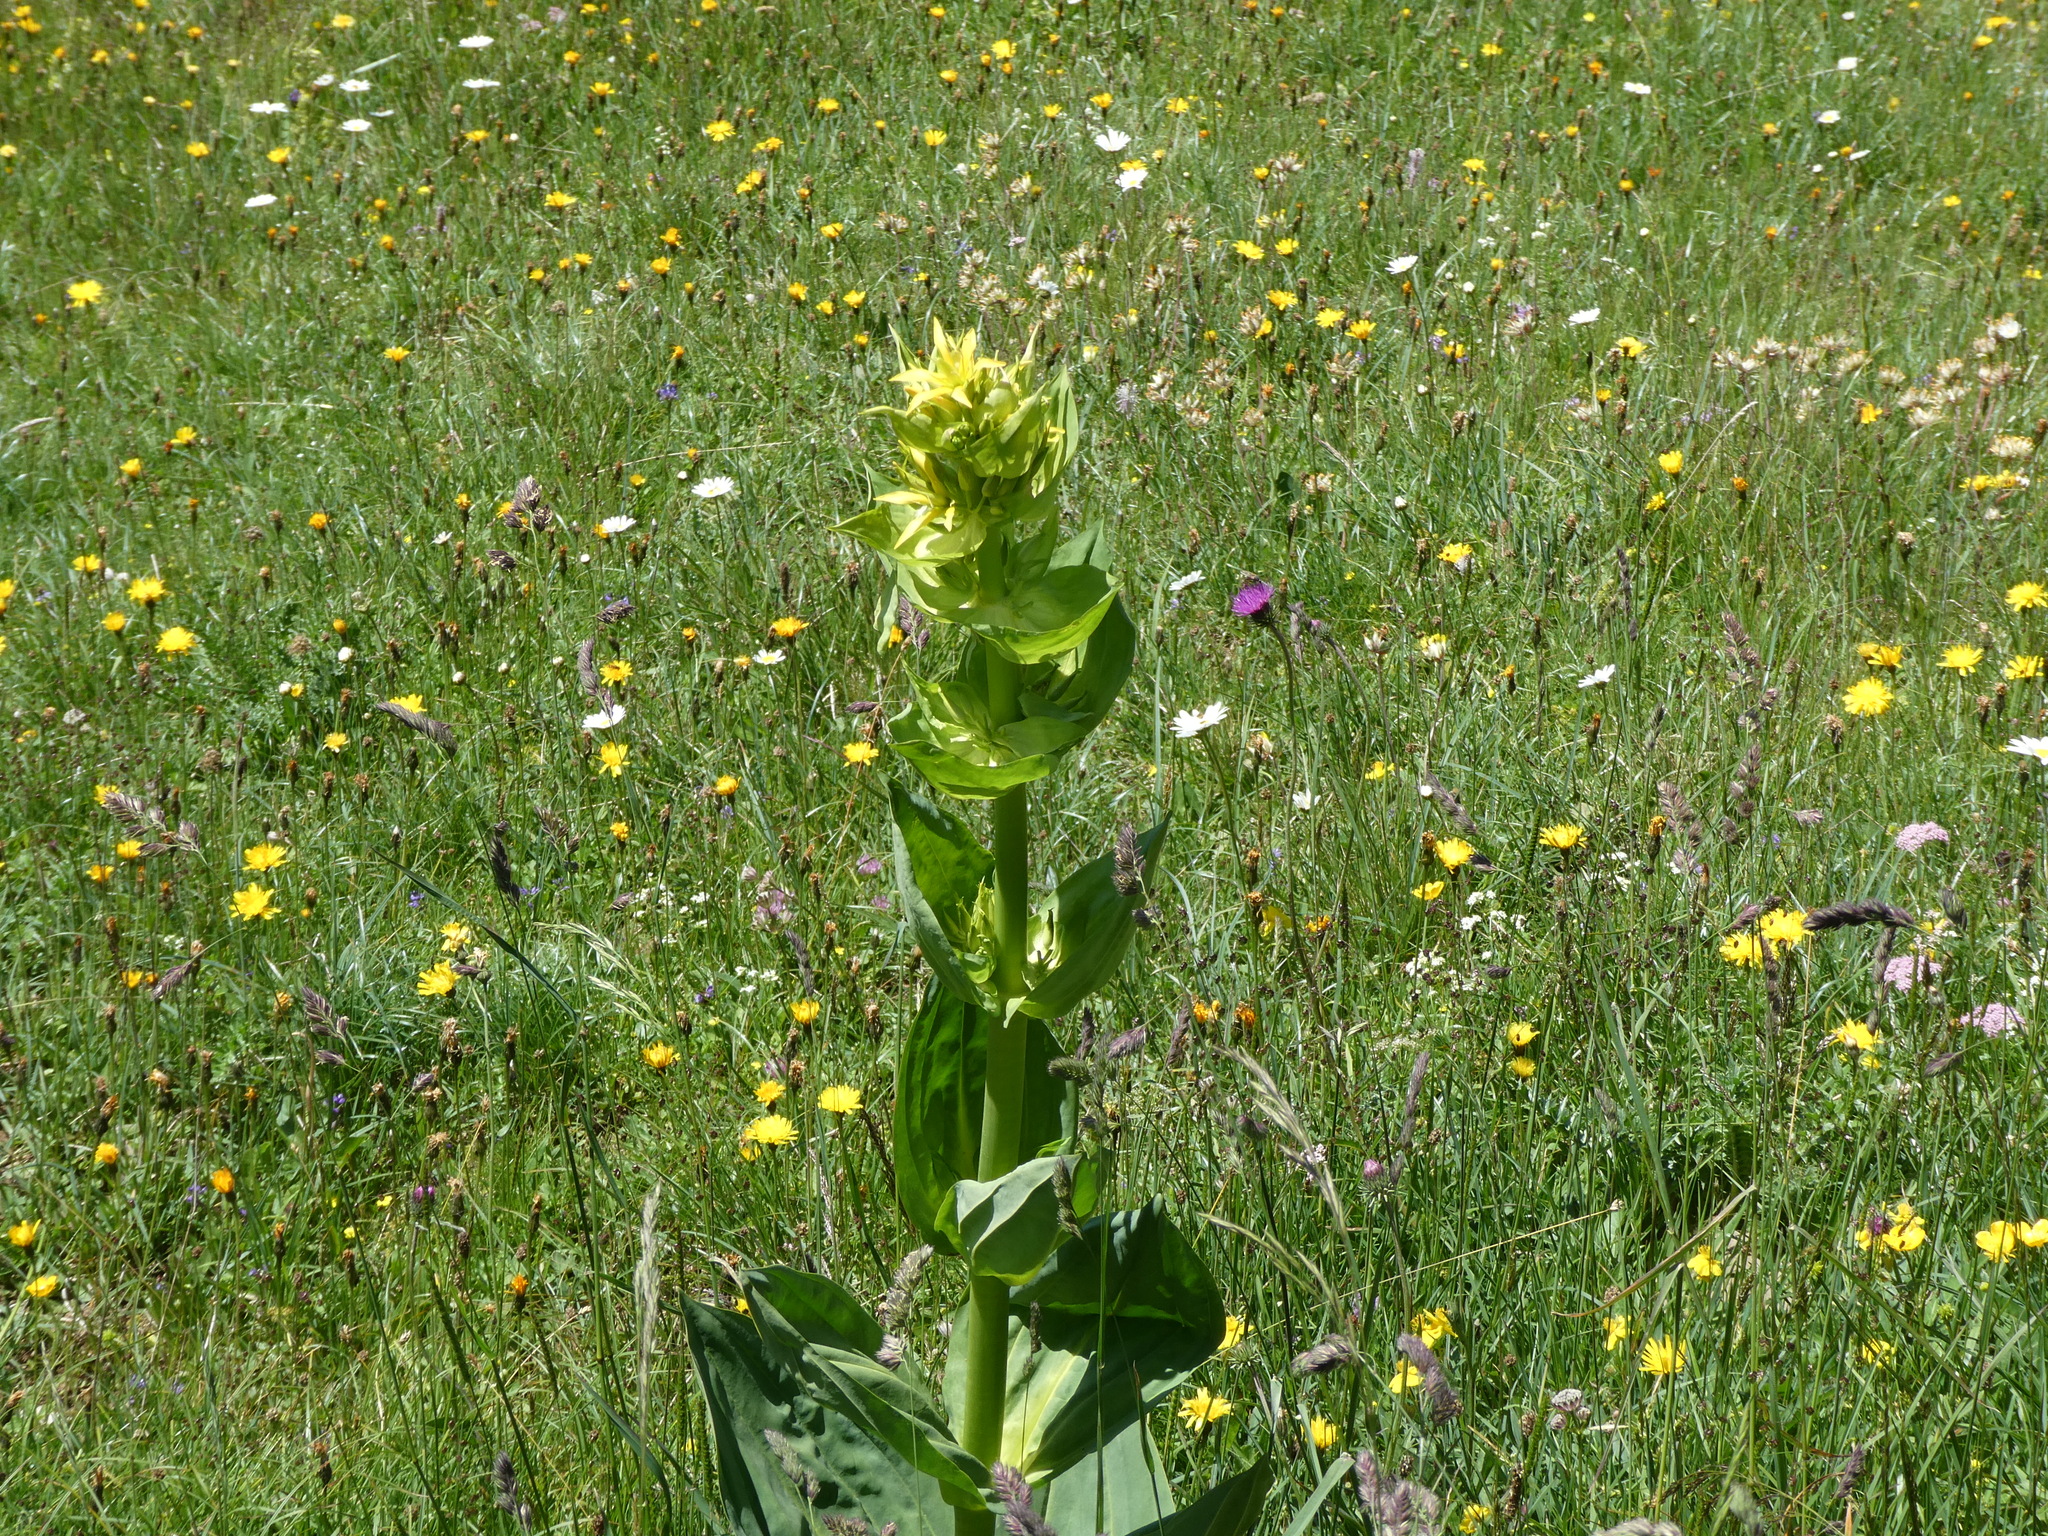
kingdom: Plantae
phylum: Tracheophyta
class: Magnoliopsida
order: Gentianales
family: Gentianaceae
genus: Gentiana
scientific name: Gentiana lutea
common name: Great yellow gentian
